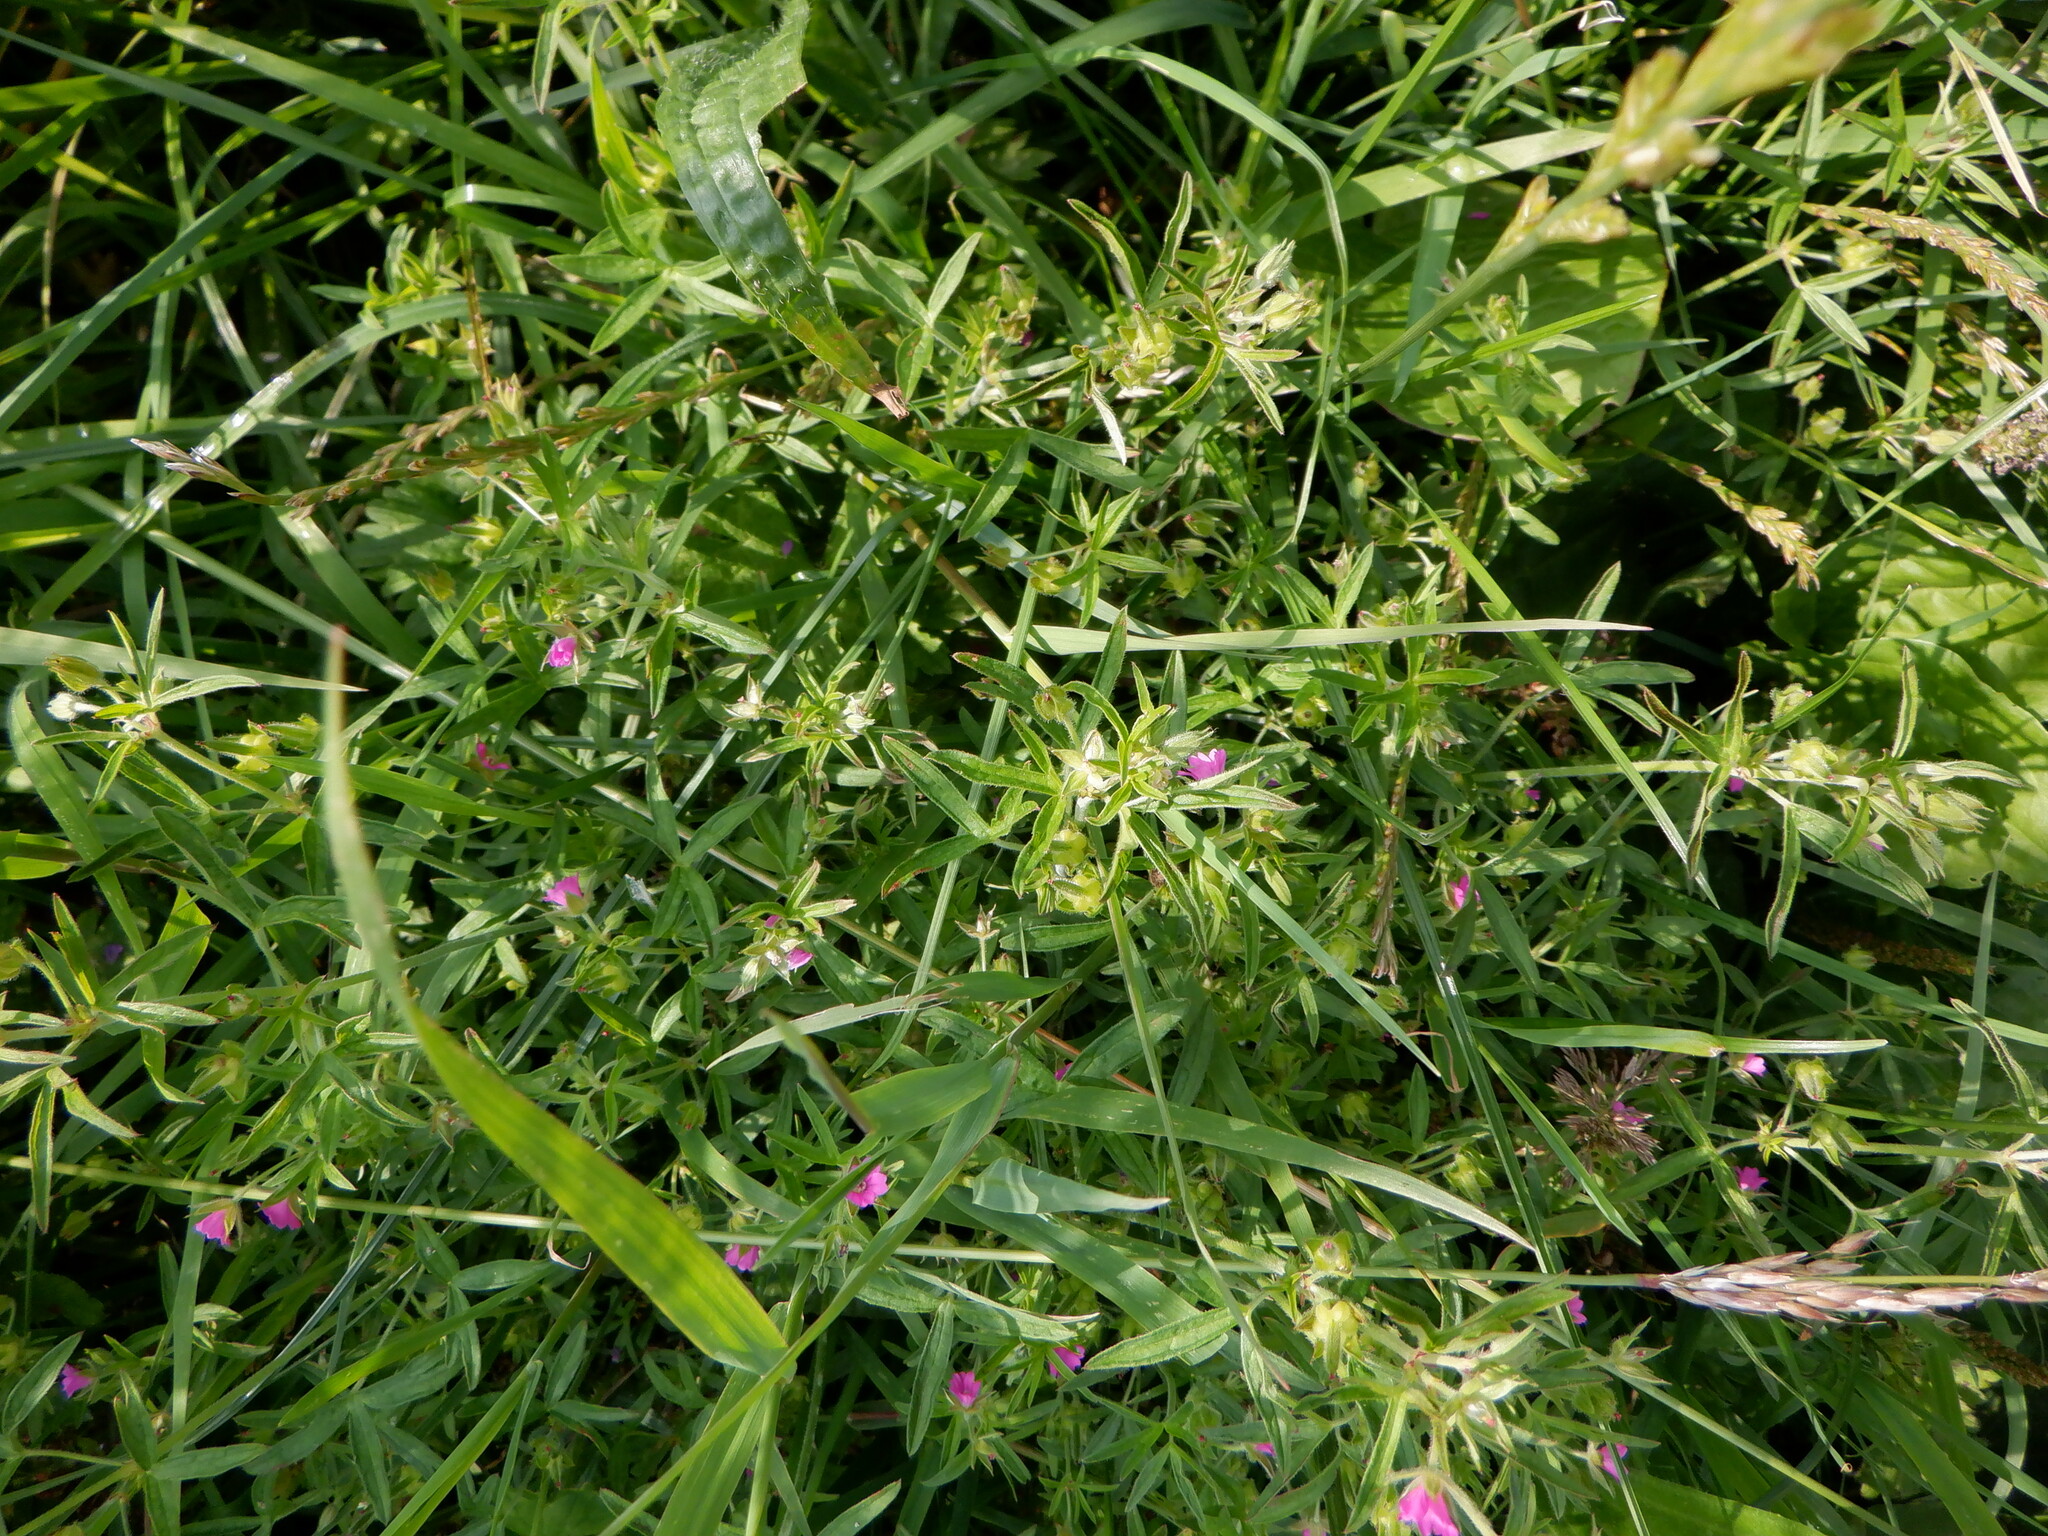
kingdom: Plantae
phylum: Tracheophyta
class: Magnoliopsida
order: Geraniales
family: Geraniaceae
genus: Geranium
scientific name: Geranium dissectum
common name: Cut-leaved crane's-bill
